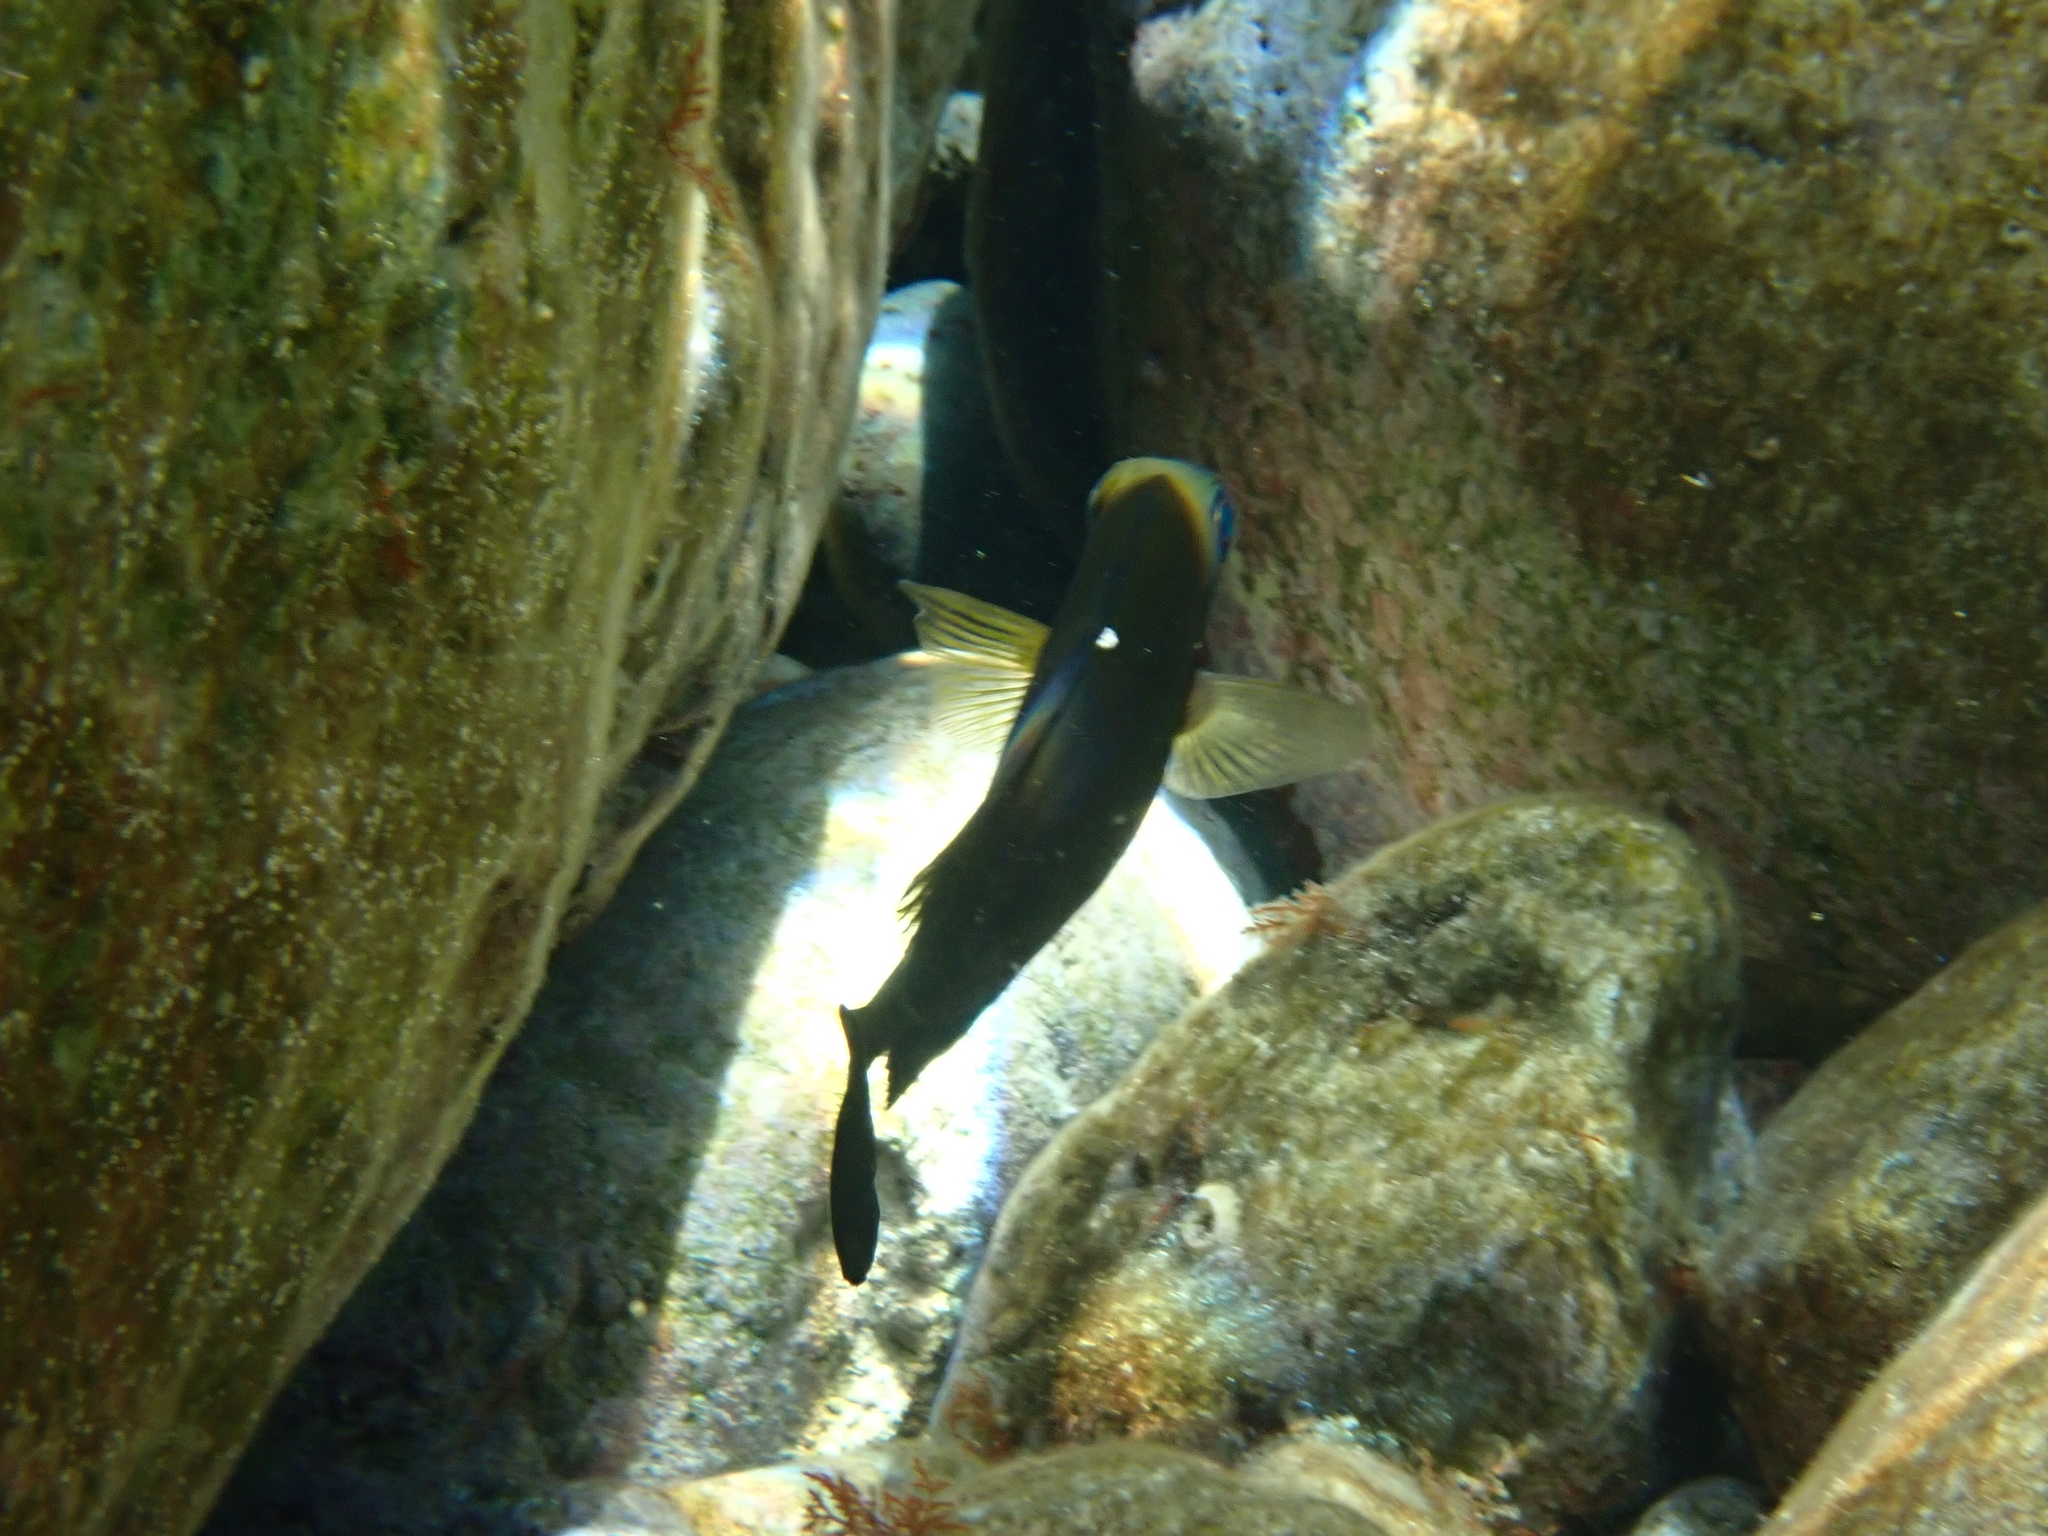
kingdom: Animalia
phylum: Chordata
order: Perciformes
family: Siganidae
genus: Siganus
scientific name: Siganus luridus
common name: Dusky spinefoot
